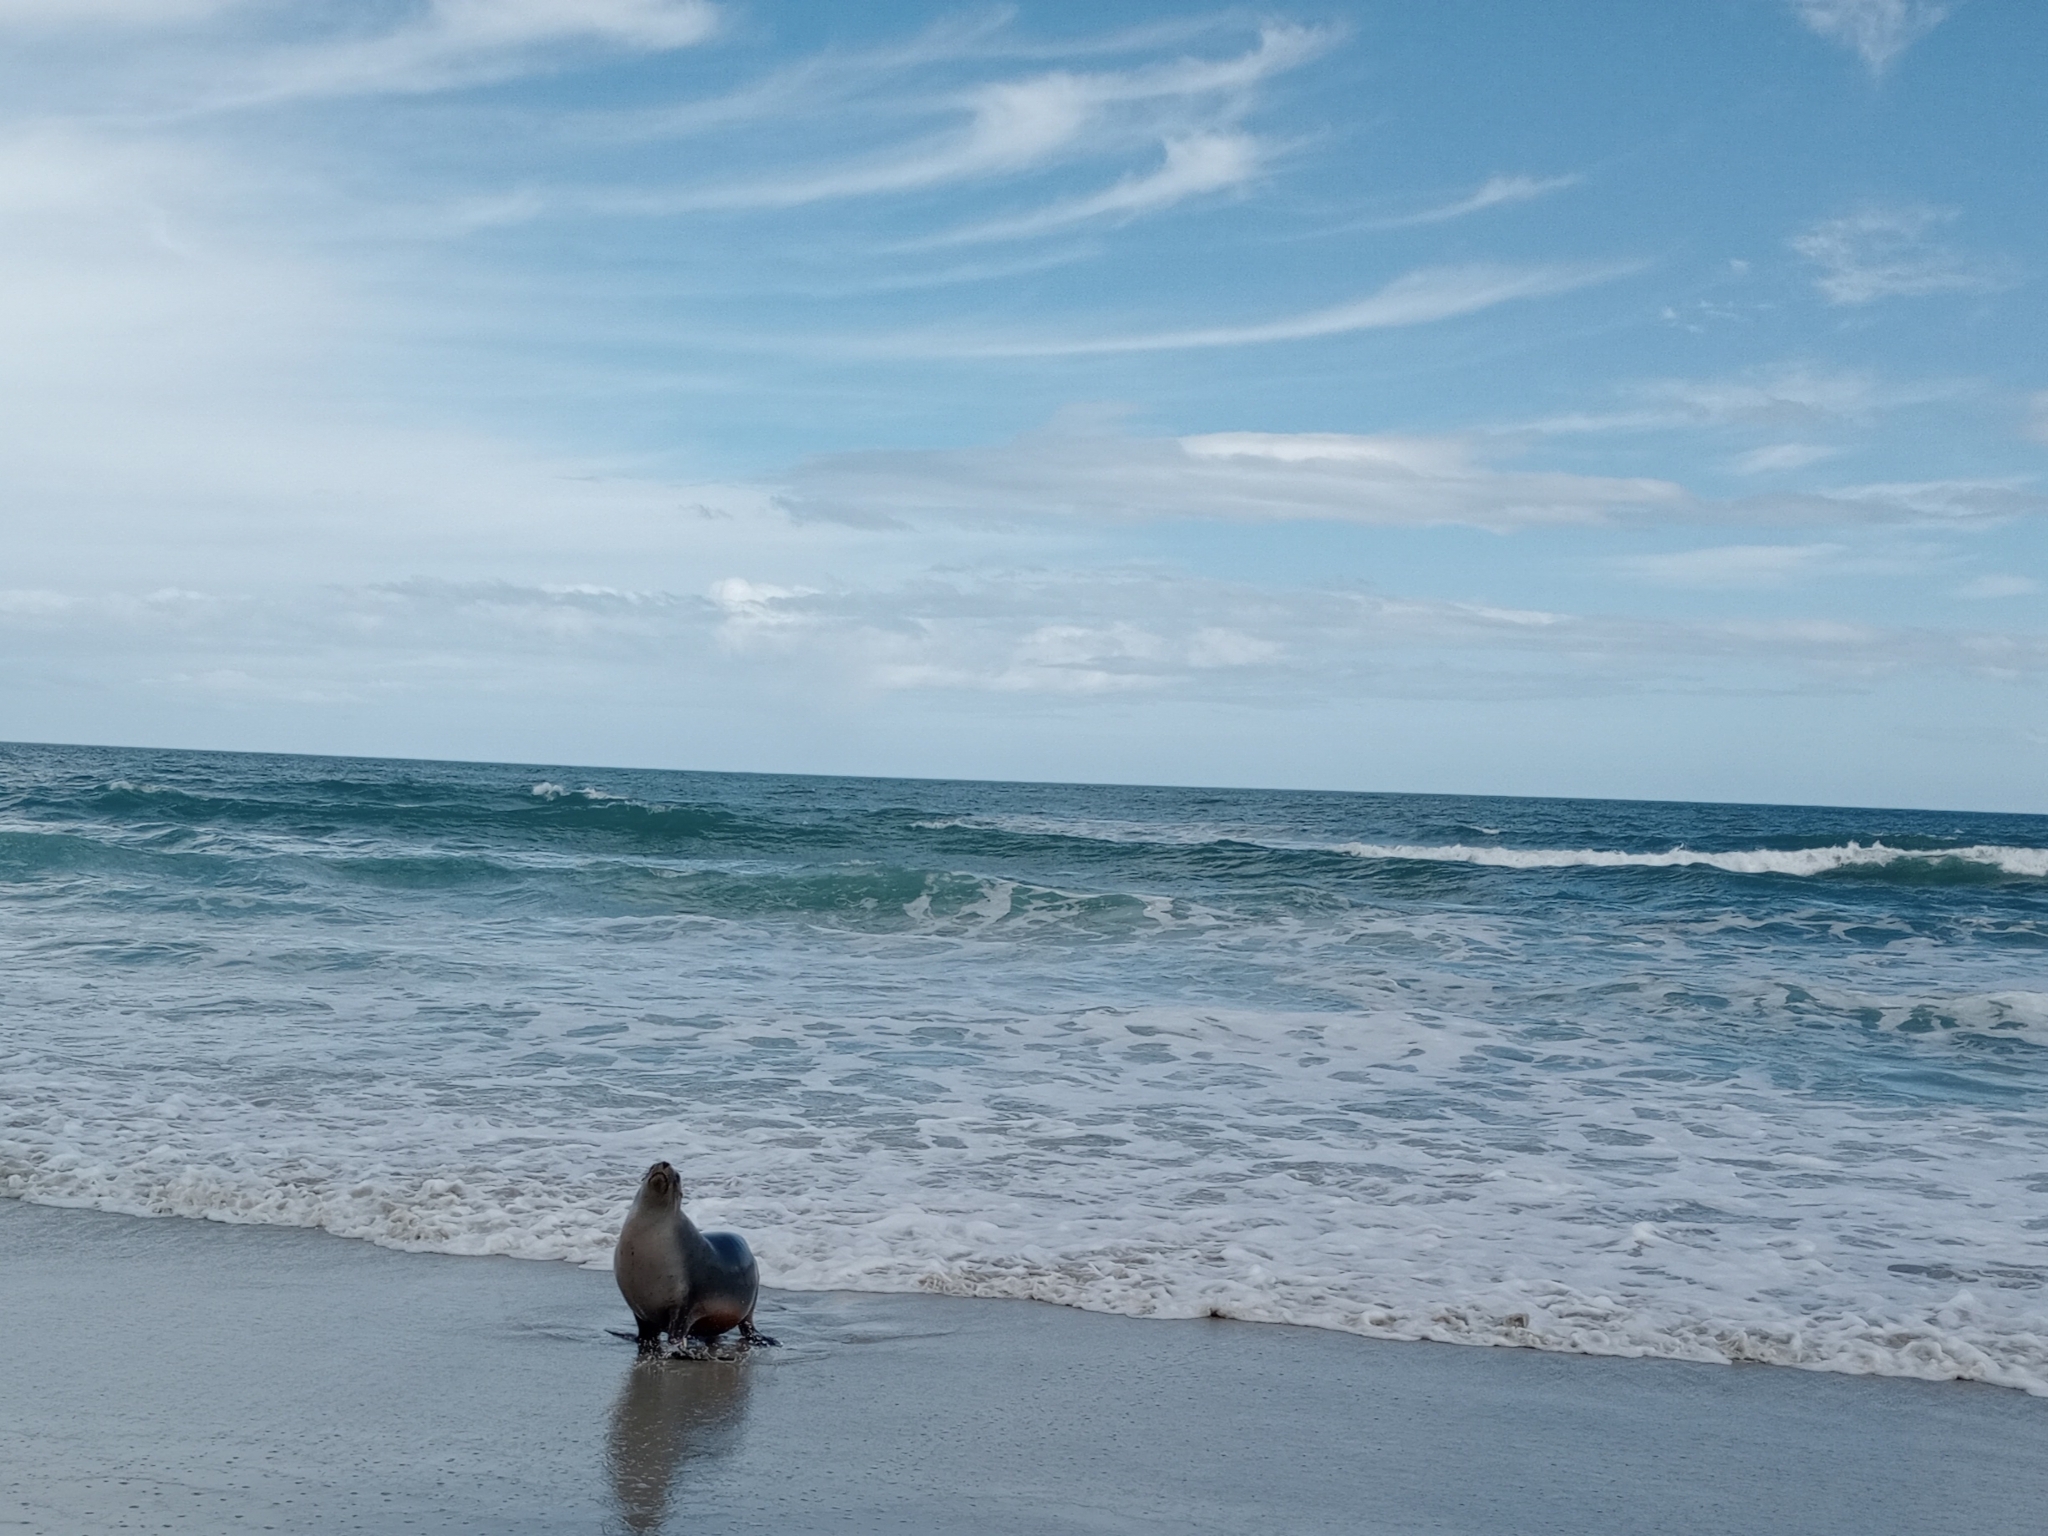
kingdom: Animalia
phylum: Chordata
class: Mammalia
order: Carnivora
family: Otariidae
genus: Phocarctos
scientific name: Phocarctos hookeri
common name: New zealand sea lion
